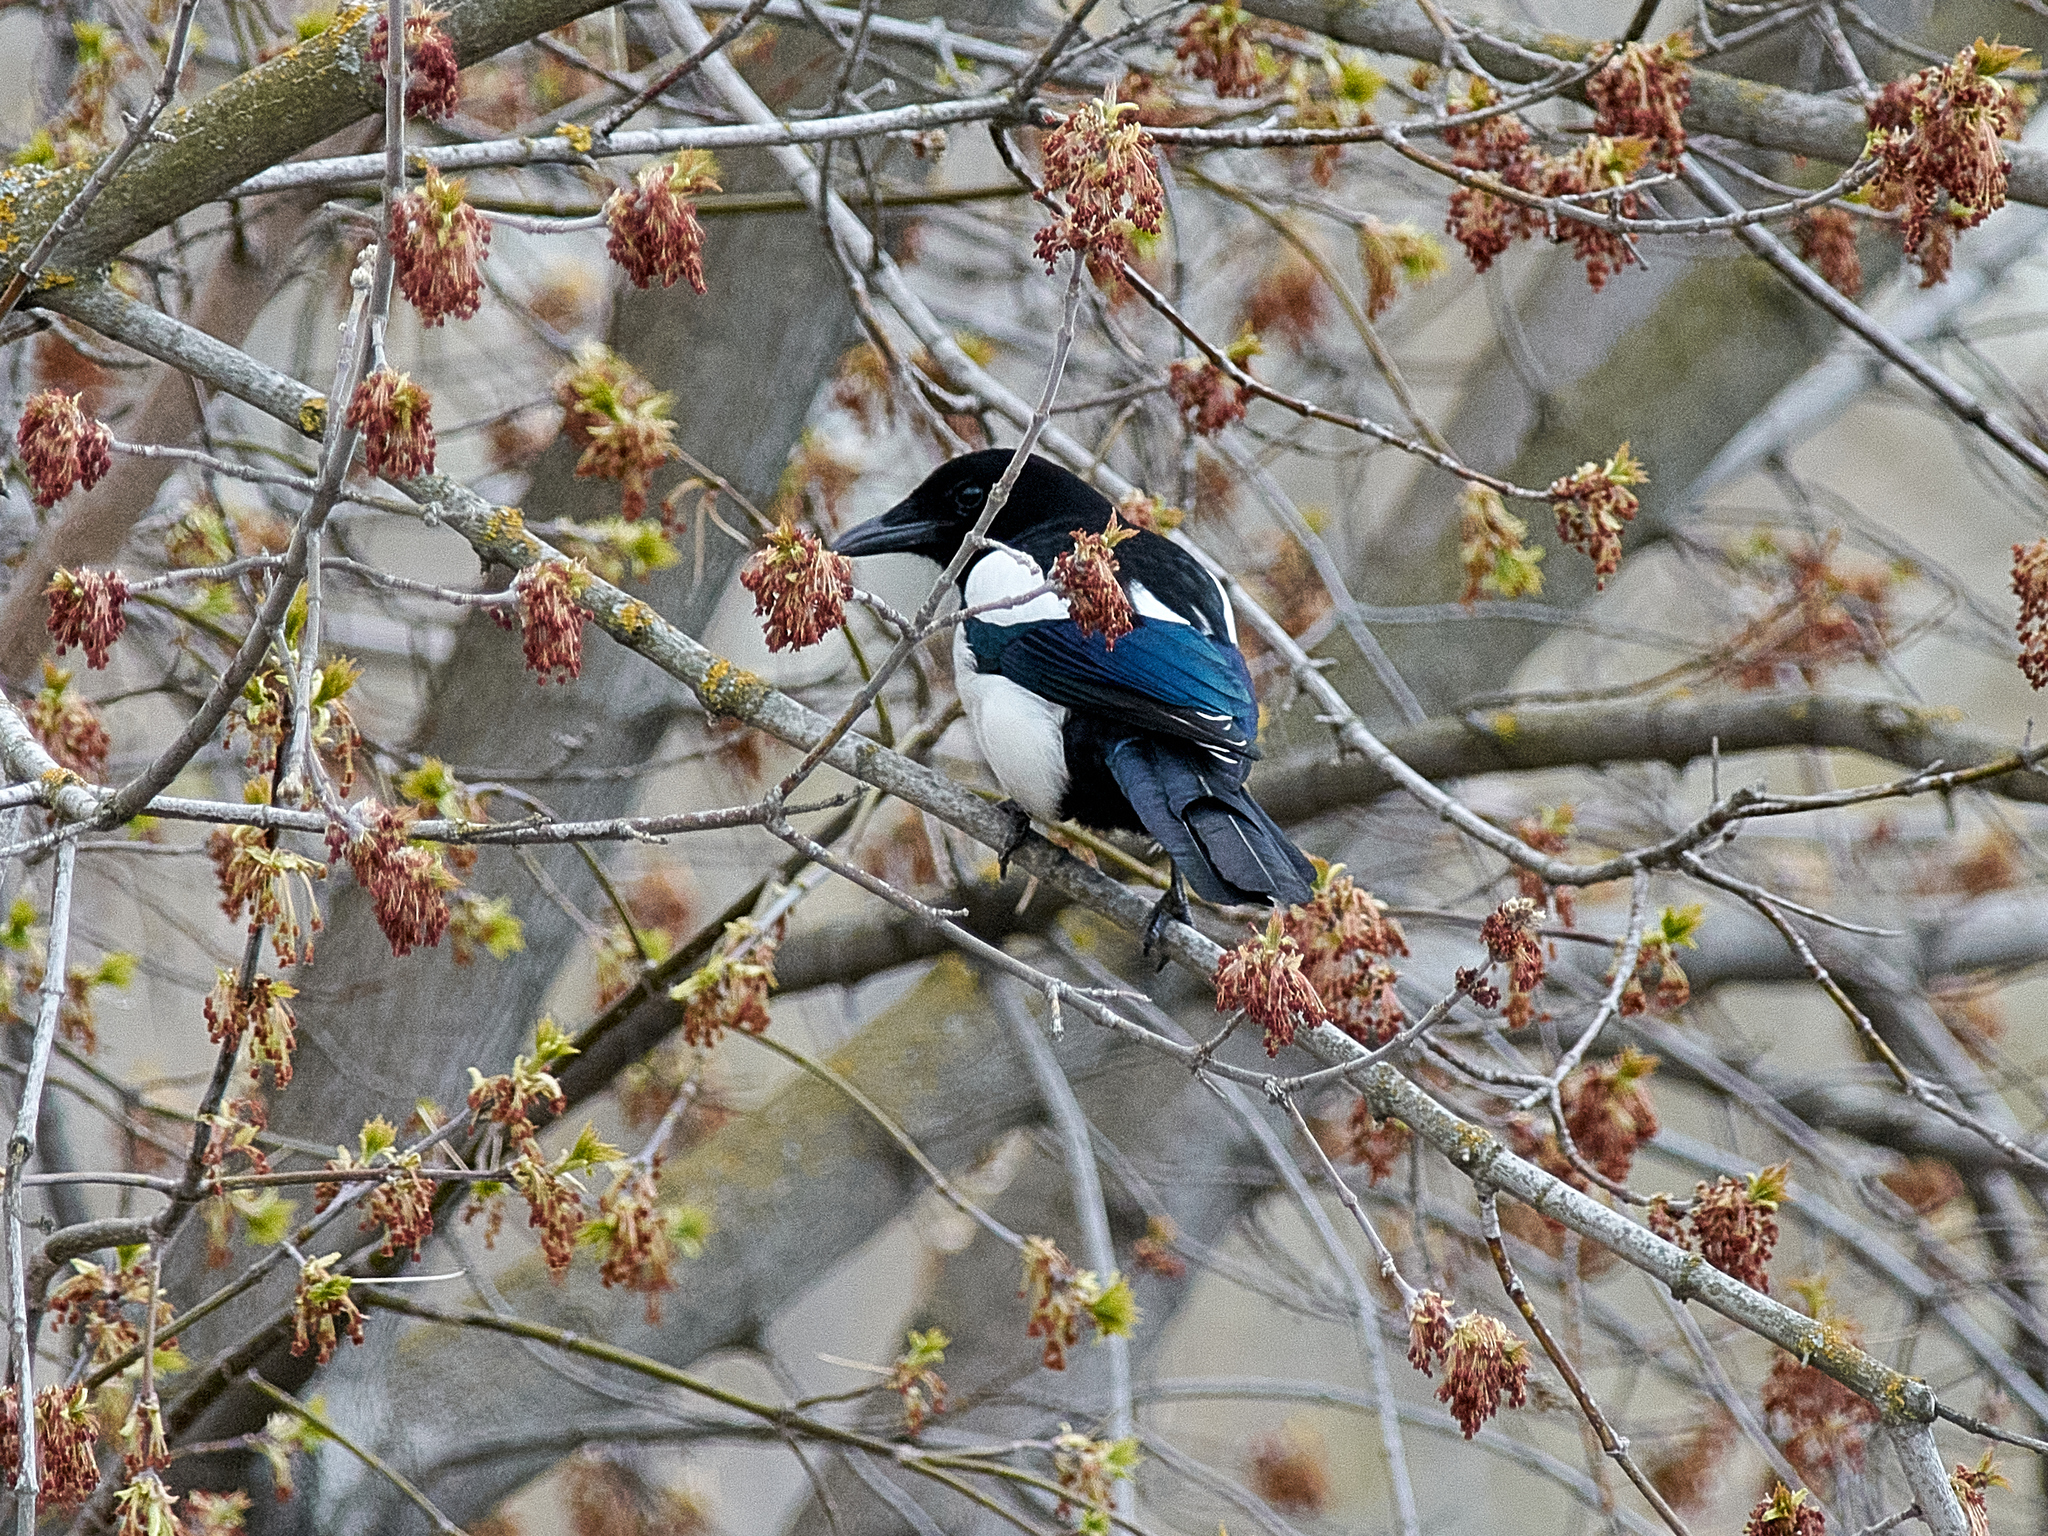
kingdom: Animalia
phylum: Chordata
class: Aves
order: Passeriformes
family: Corvidae
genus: Pica
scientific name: Pica pica
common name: Eurasian magpie
